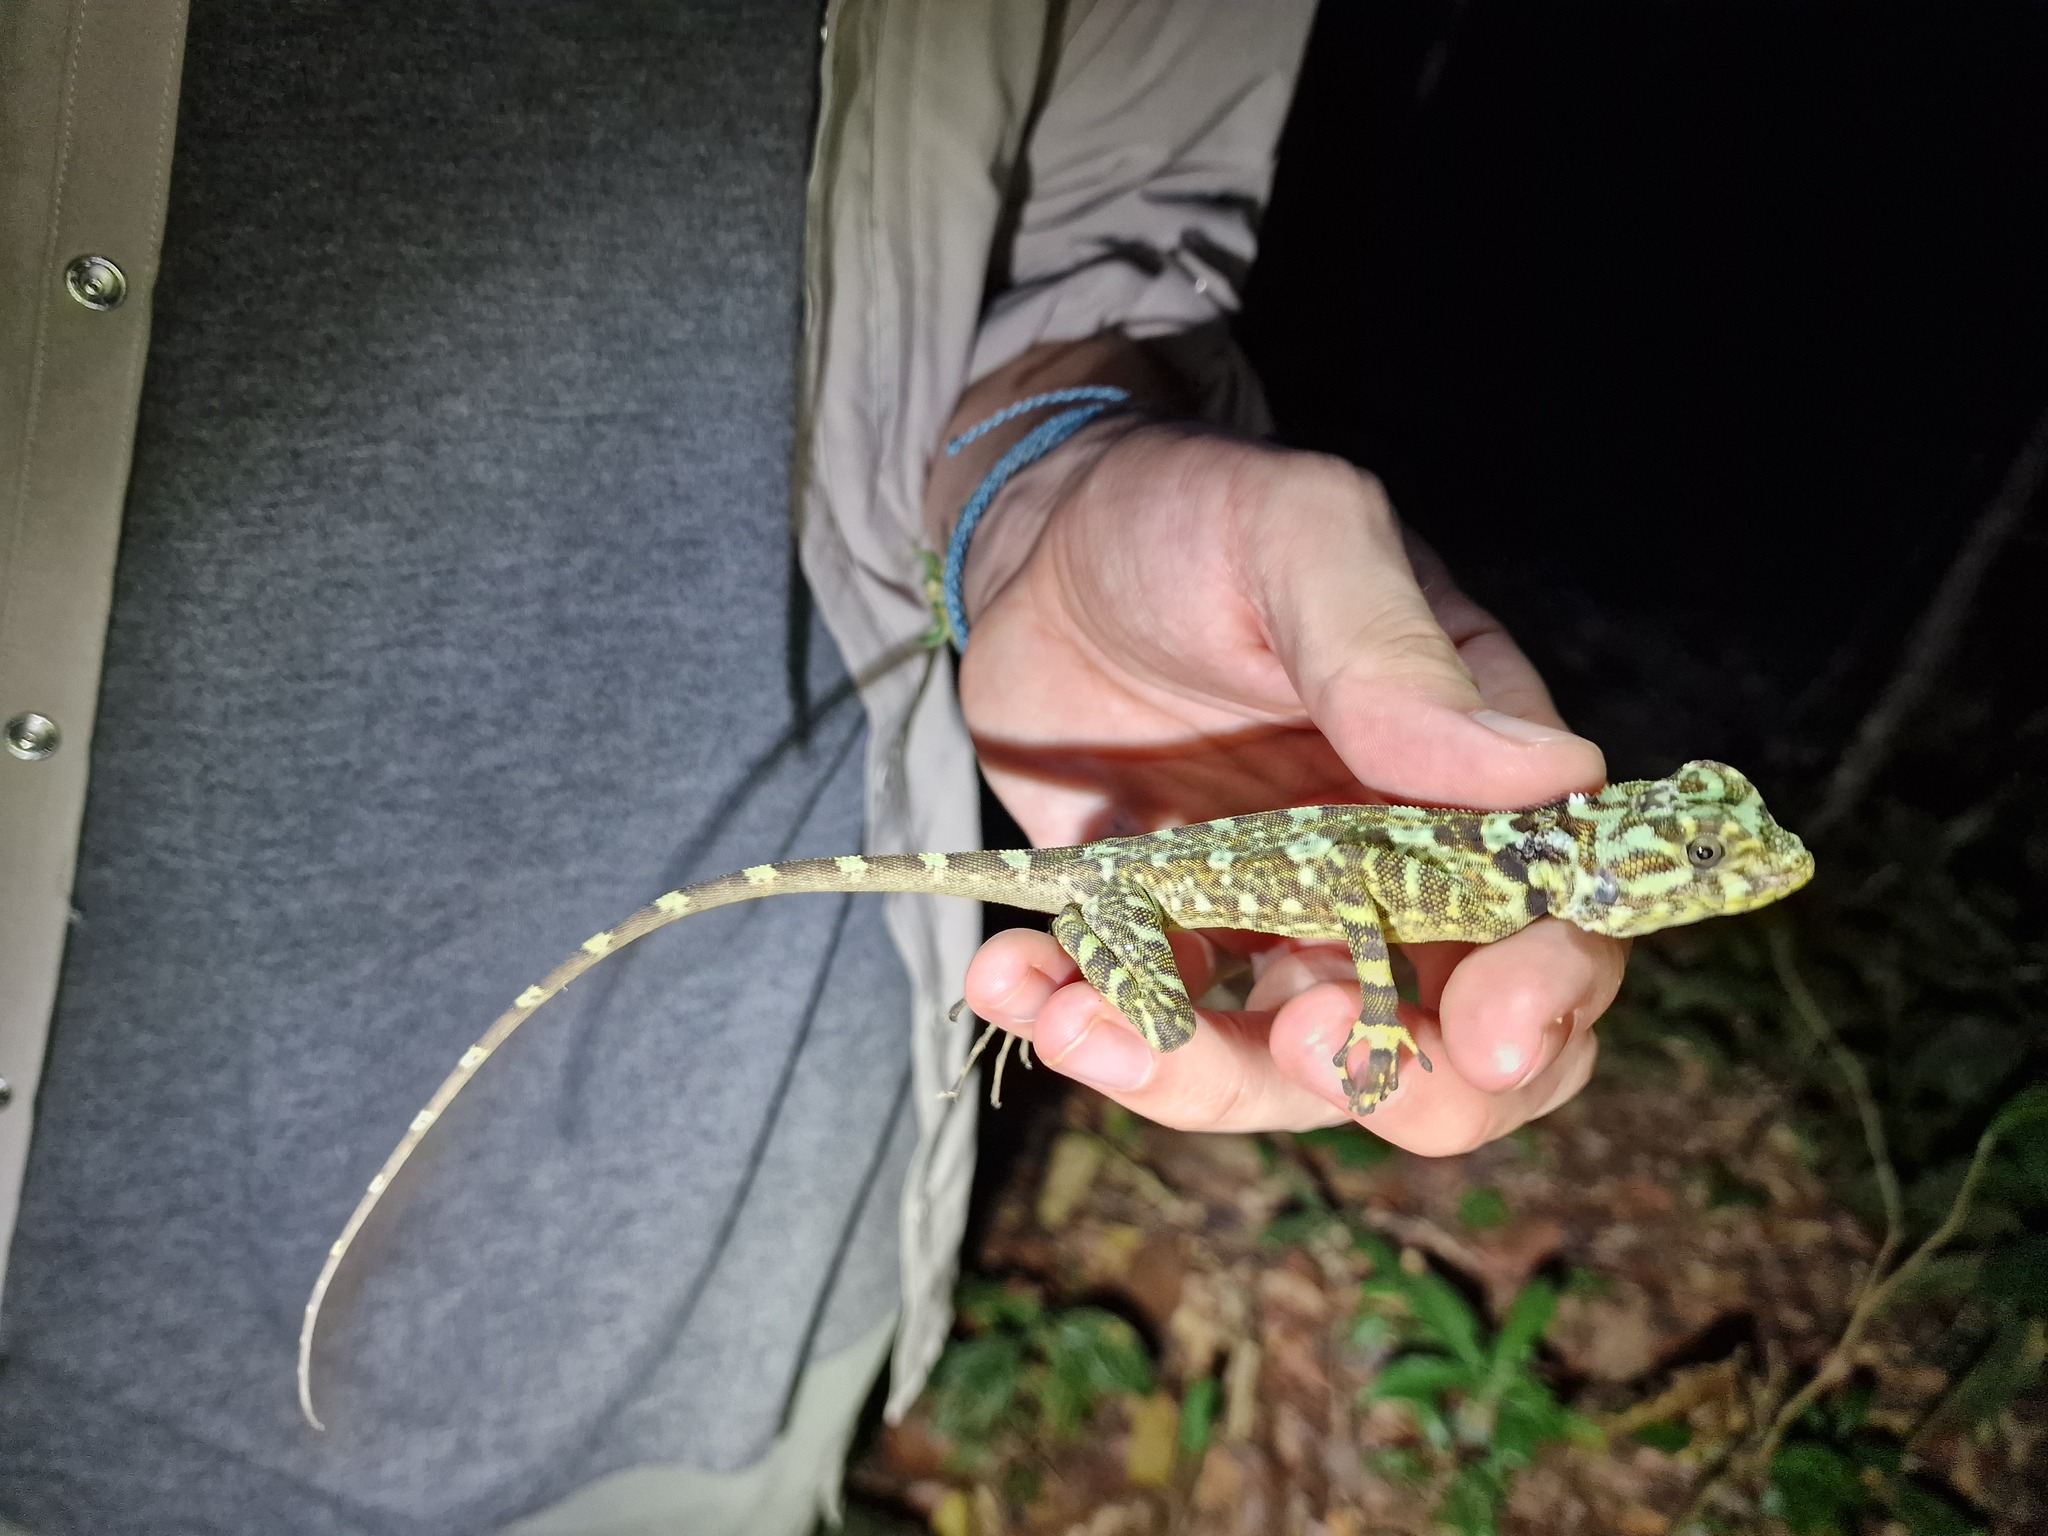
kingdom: Animalia
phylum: Chordata
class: Squamata
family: Tropiduridae
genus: Plica
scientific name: Plica plica
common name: Tree runner
